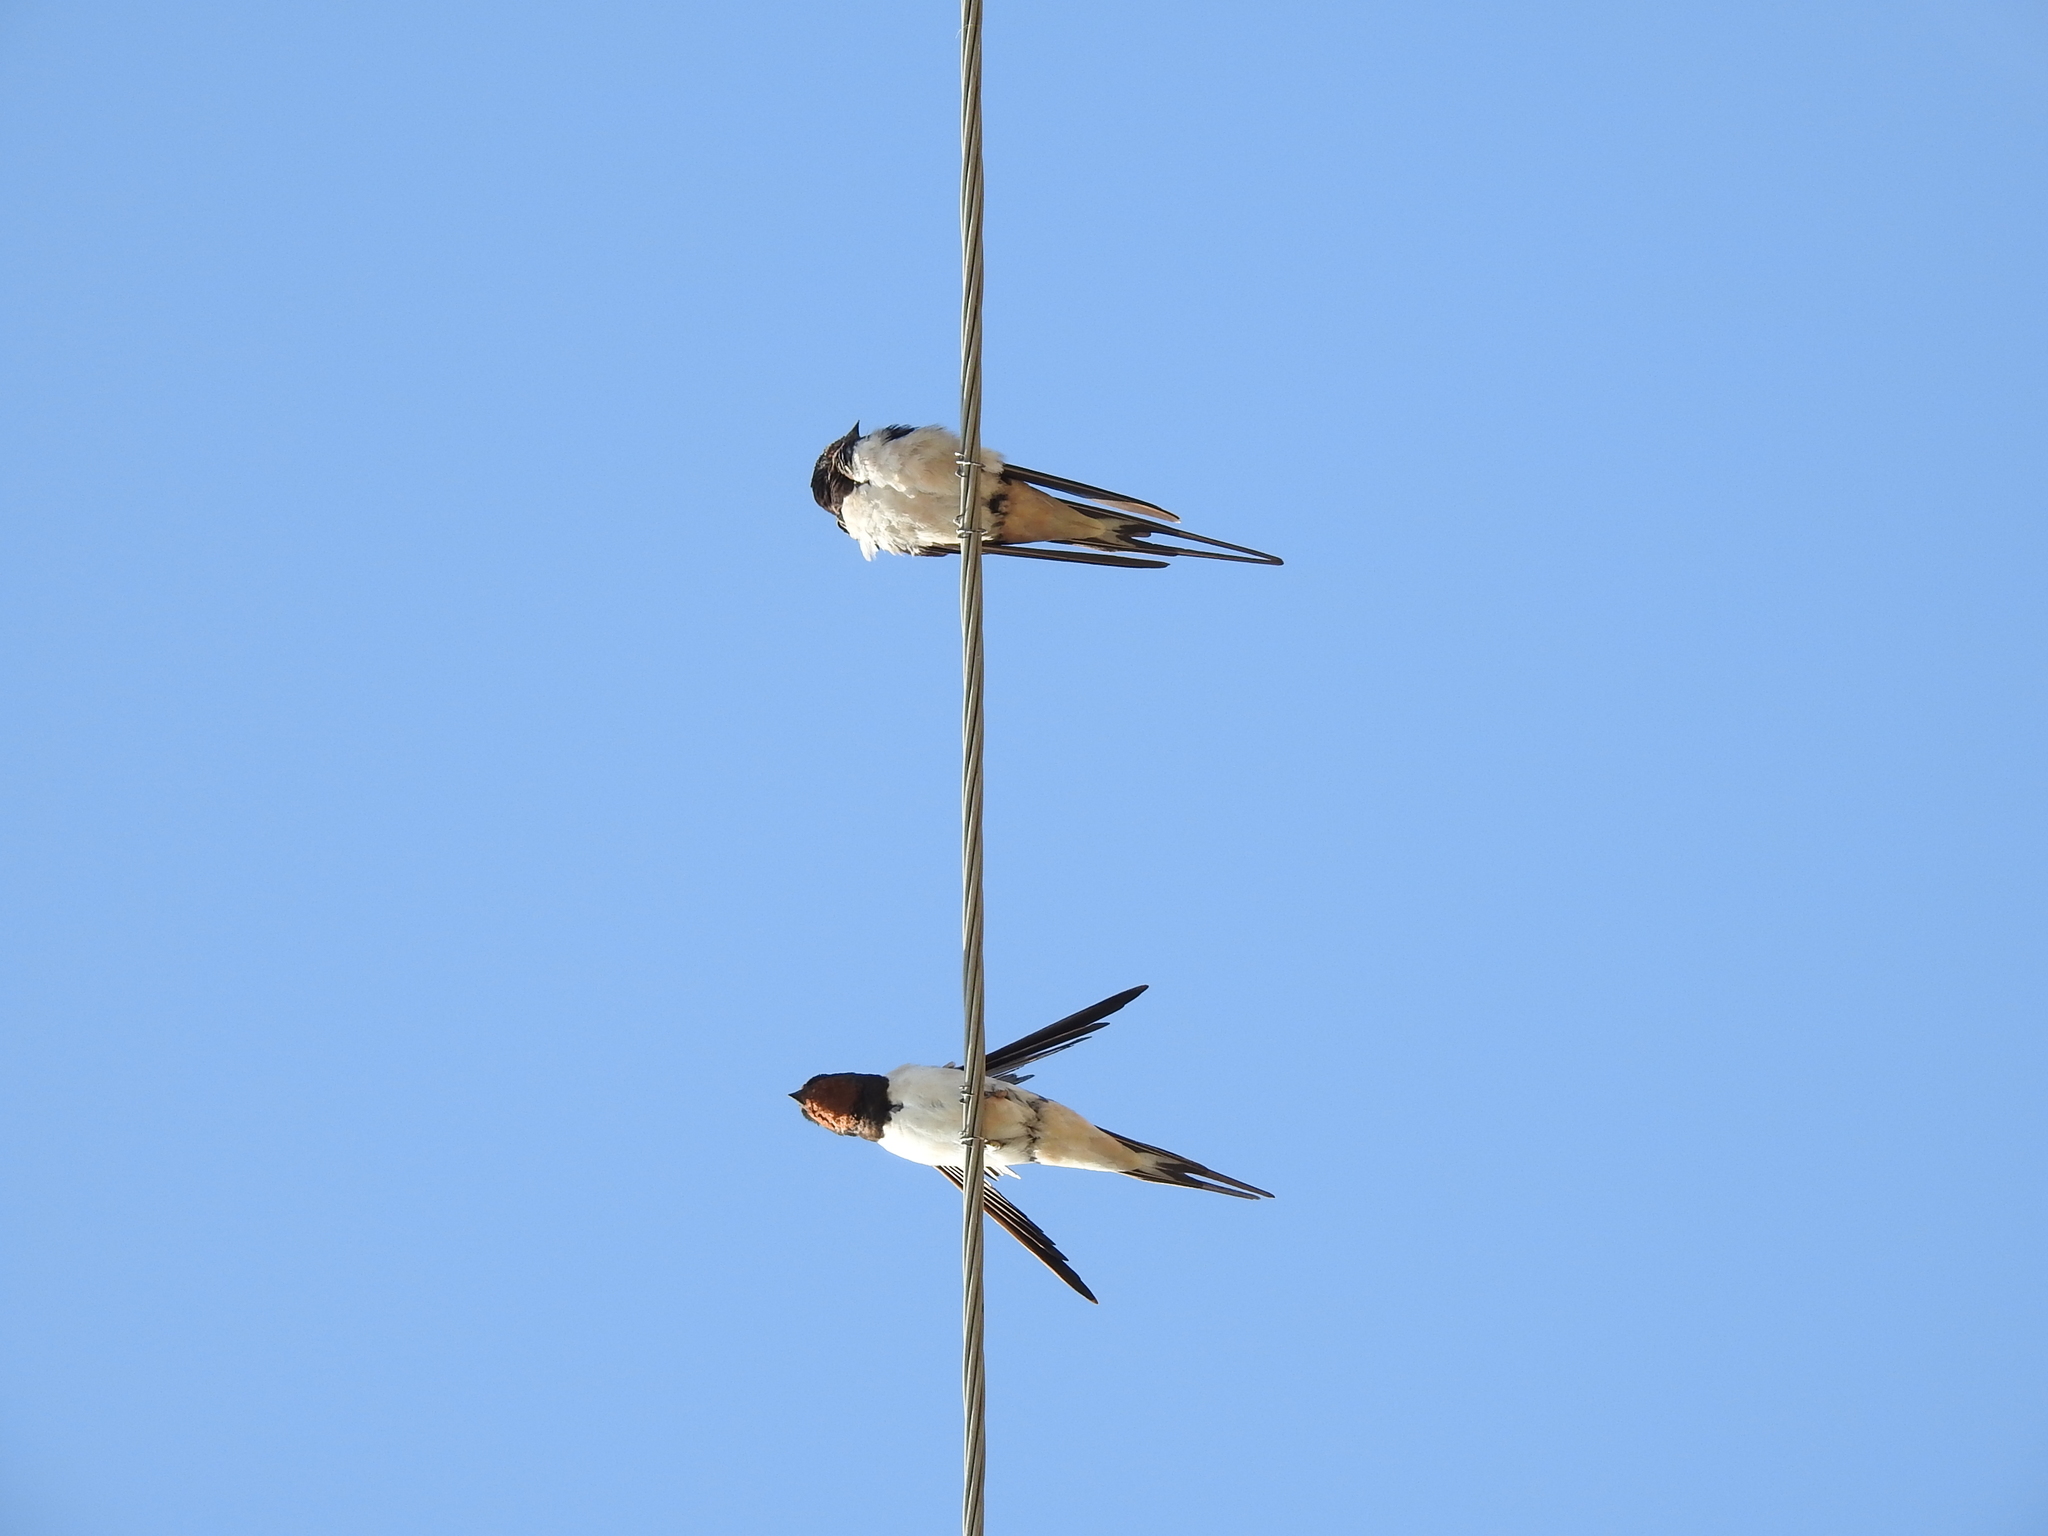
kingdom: Animalia
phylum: Chordata
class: Aves
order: Passeriformes
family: Hirundinidae
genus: Hirundo
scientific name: Hirundo rustica
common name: Barn swallow
